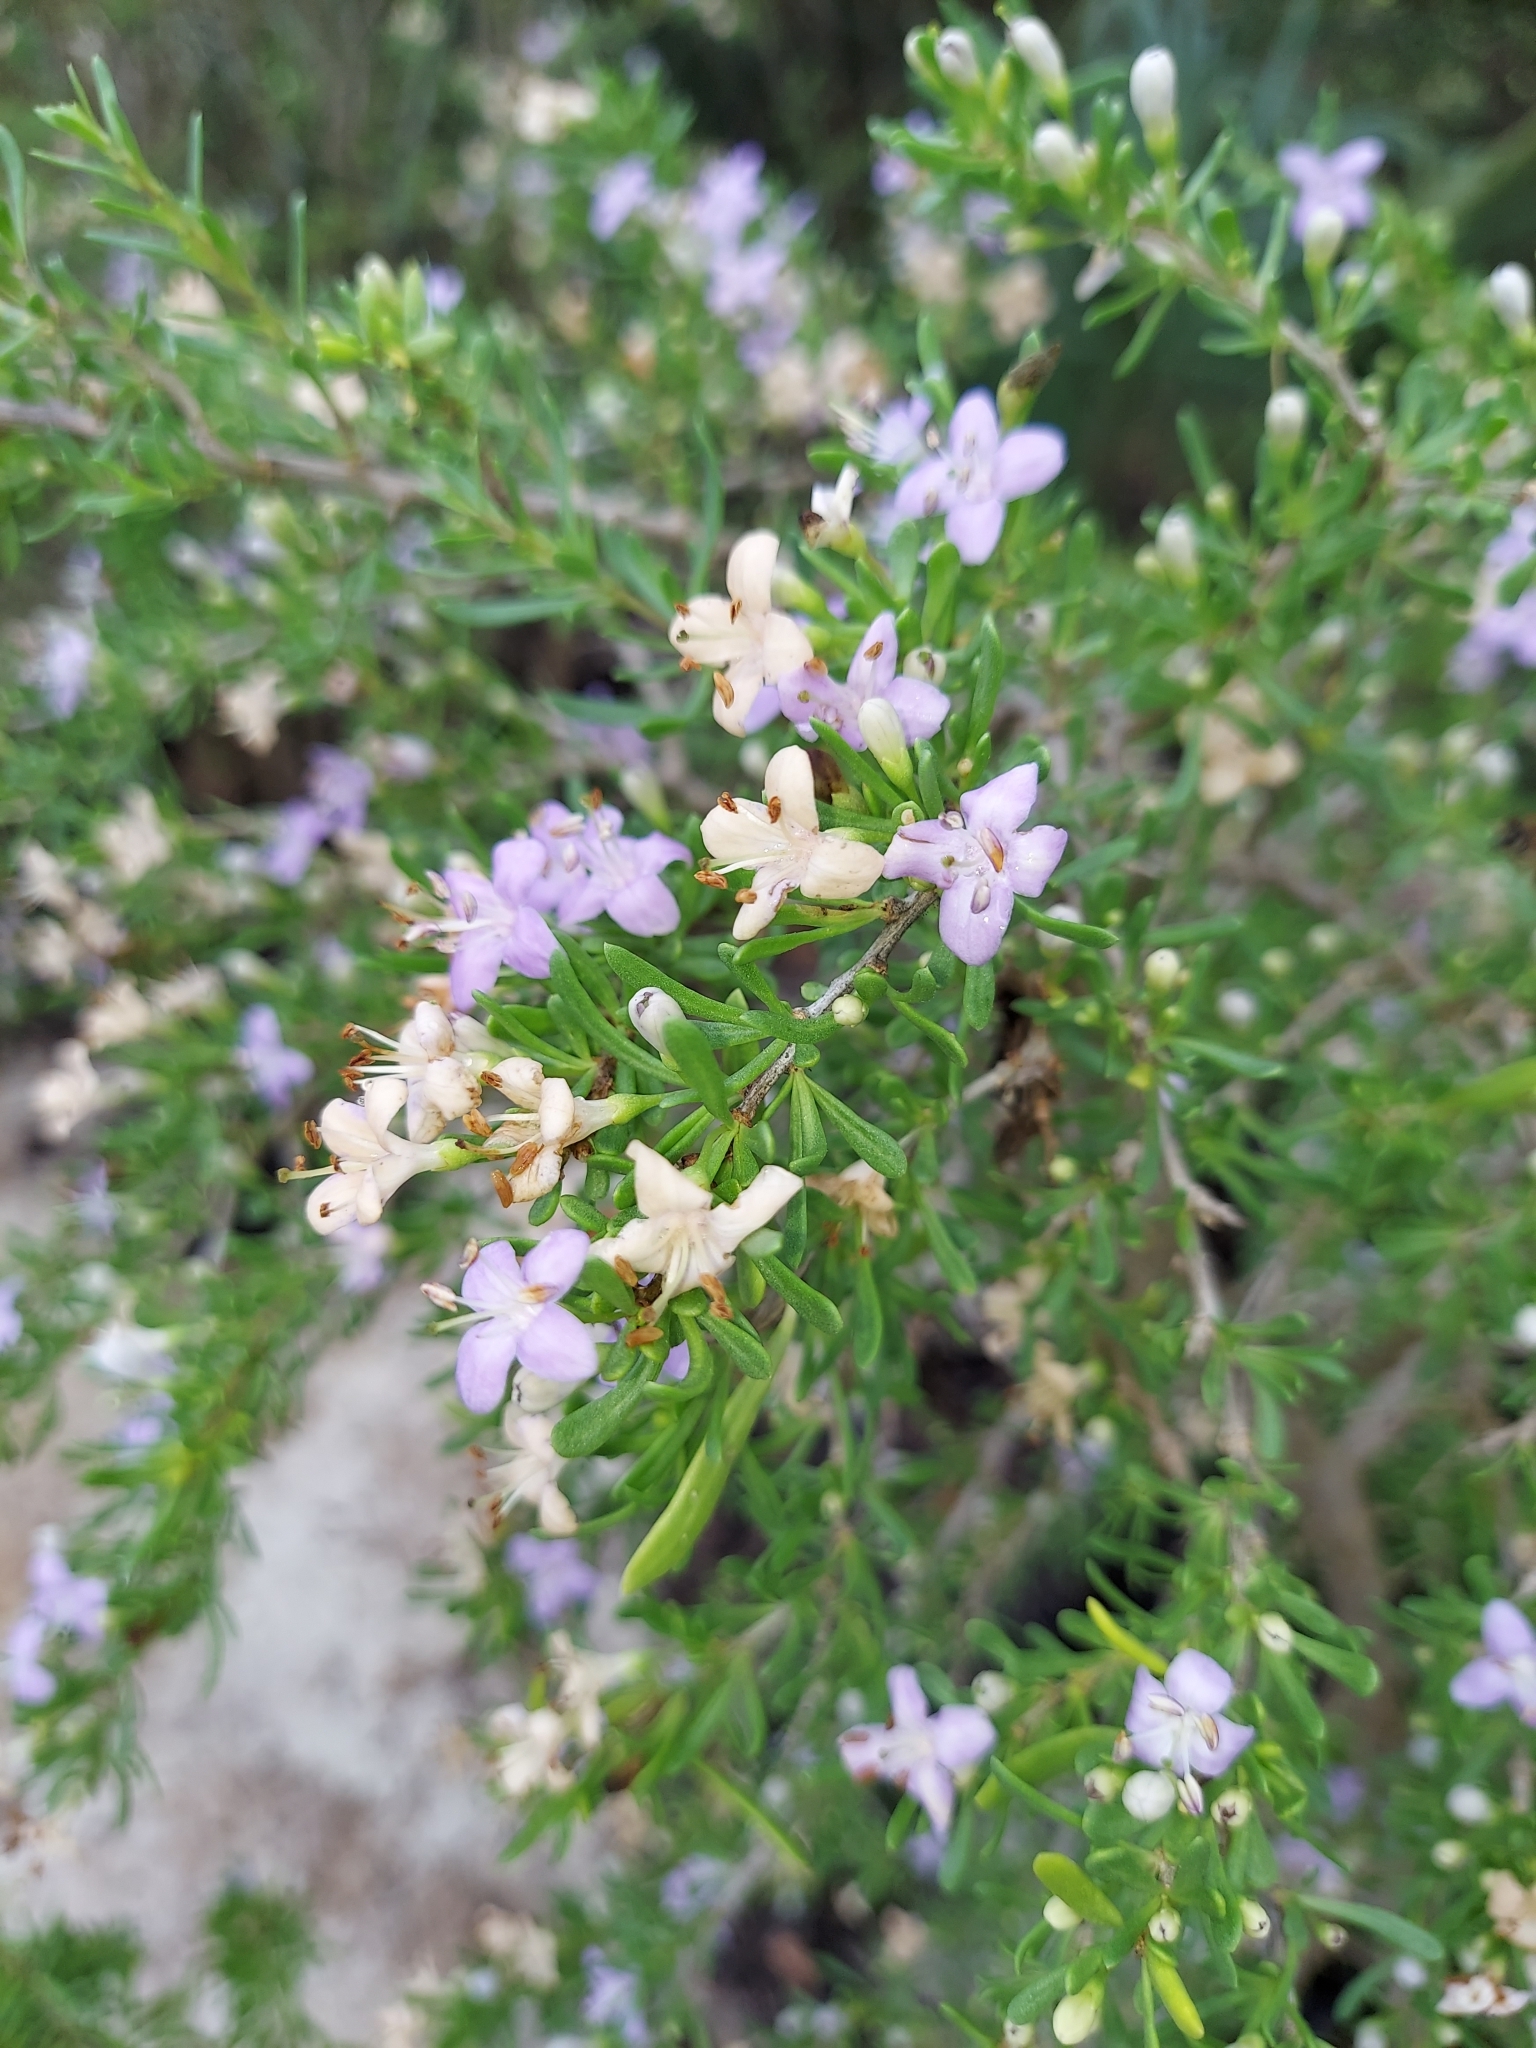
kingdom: Plantae
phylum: Tracheophyta
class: Magnoliopsida
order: Solanales
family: Solanaceae
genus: Lycium
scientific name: Lycium carolinianum
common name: Christmasberry
